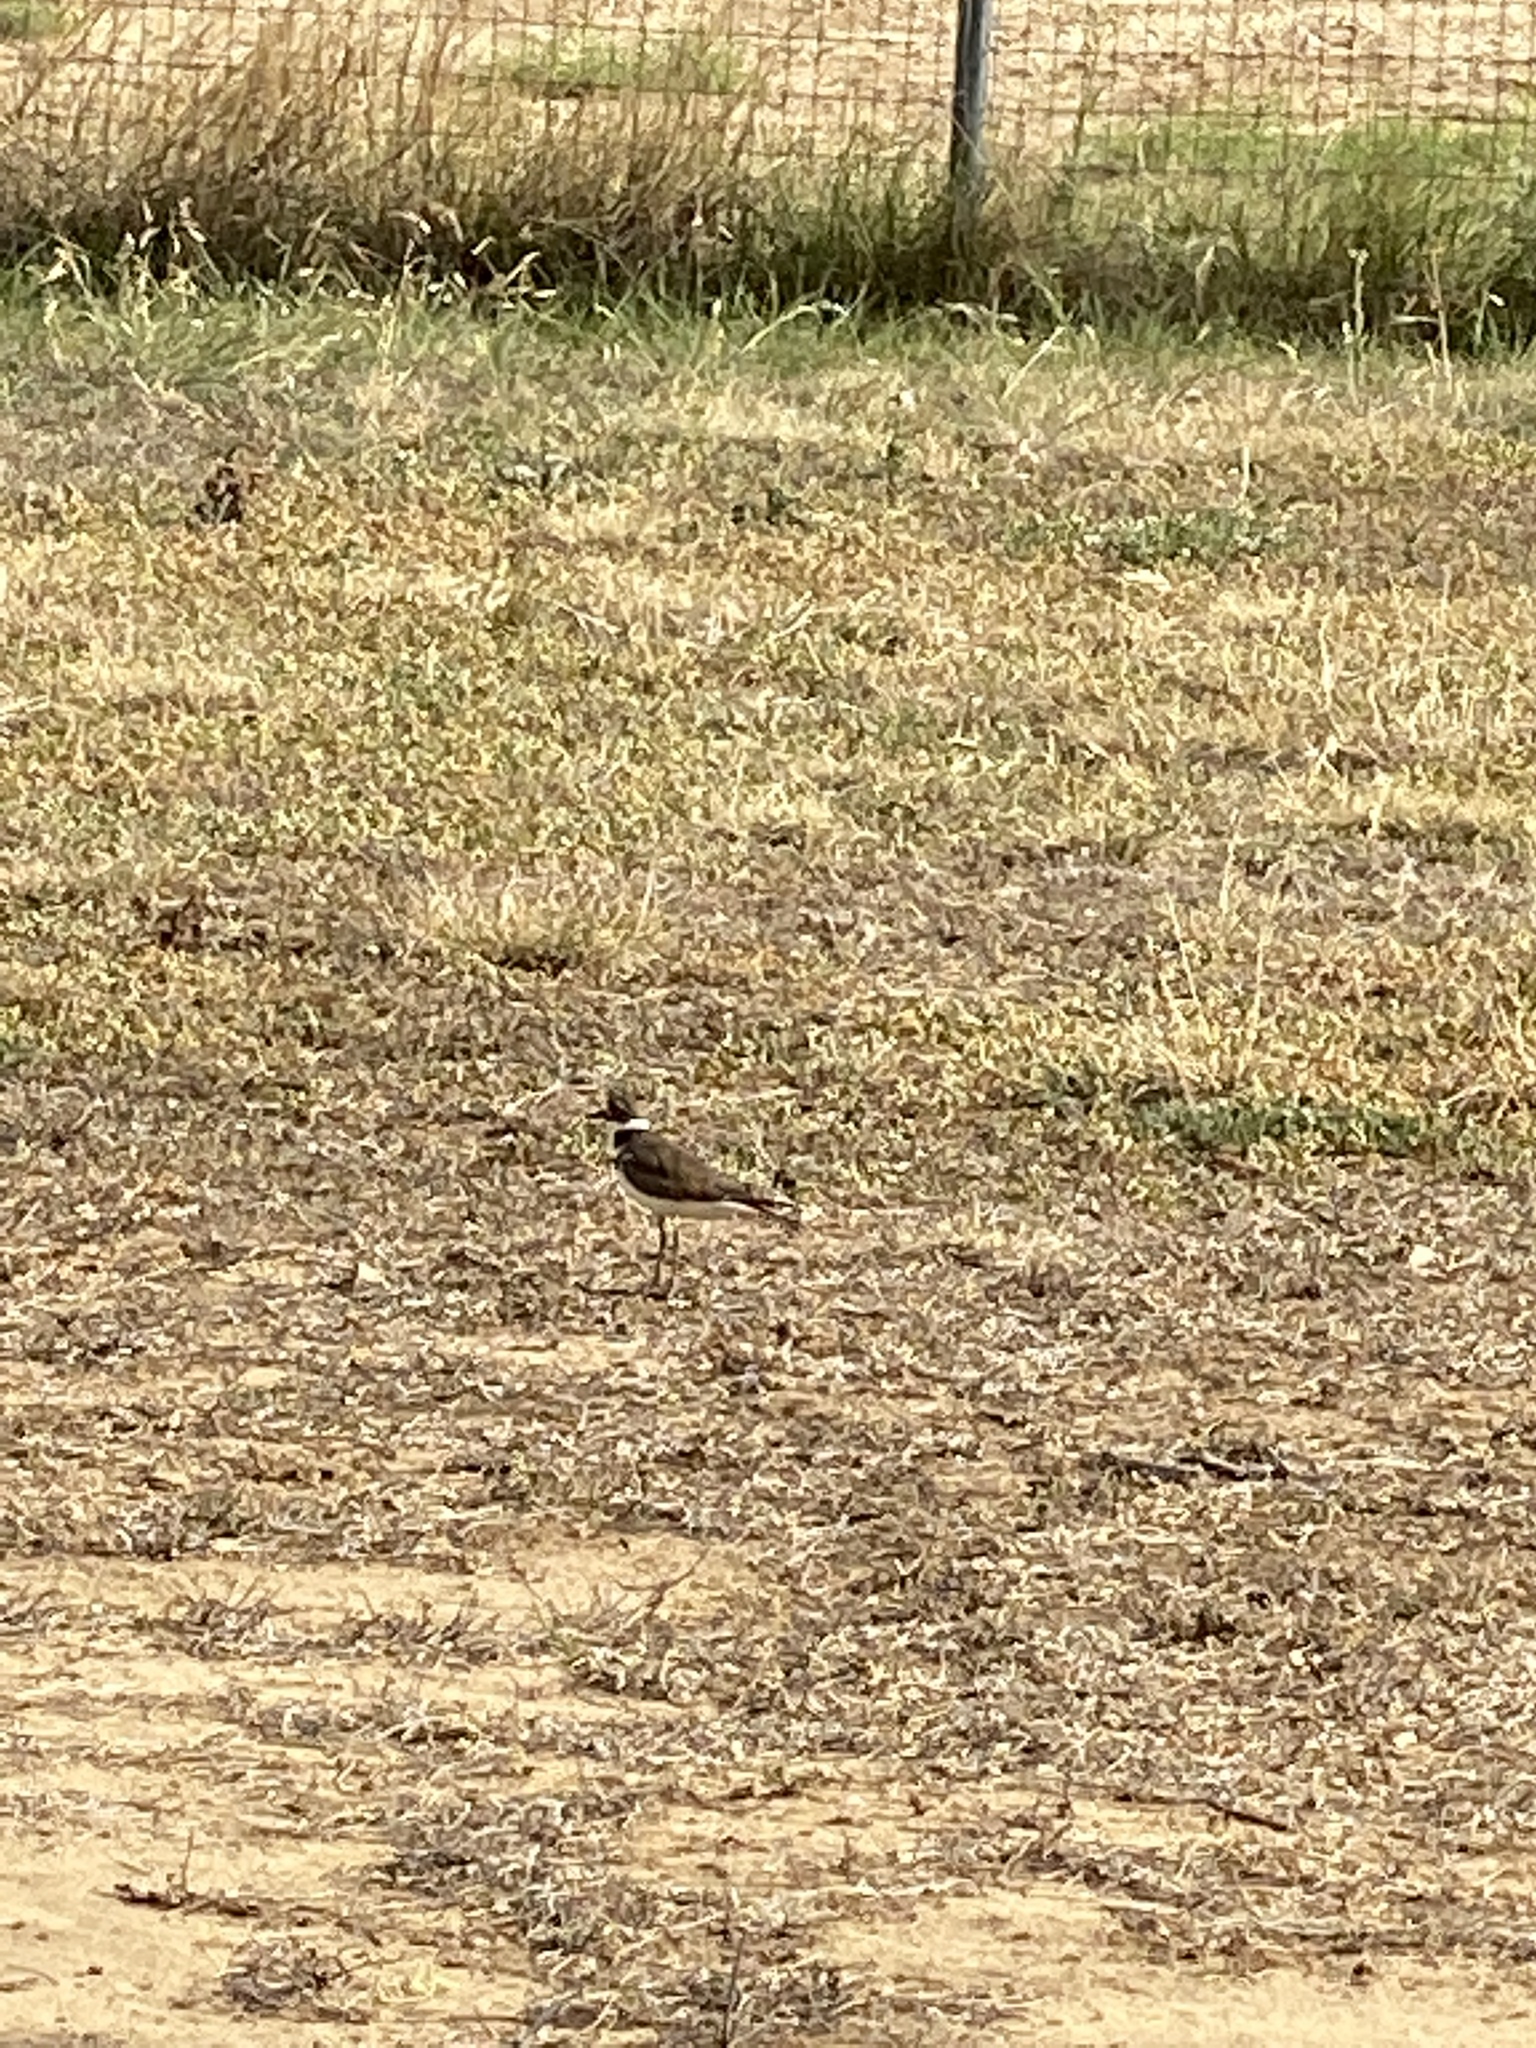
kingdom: Animalia
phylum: Chordata
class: Aves
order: Charadriiformes
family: Charadriidae
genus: Charadrius
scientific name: Charadrius vociferus
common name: Killdeer
